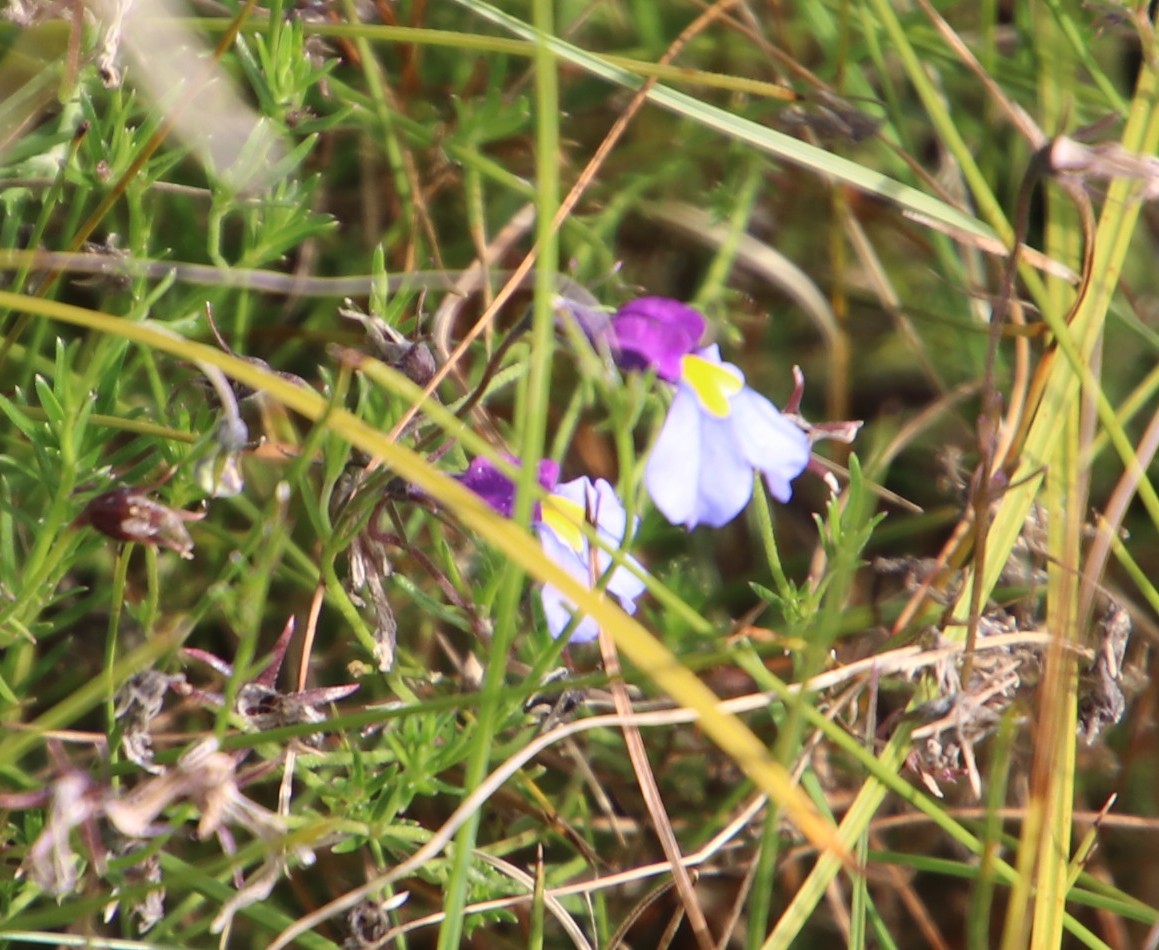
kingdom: Plantae
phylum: Tracheophyta
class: Magnoliopsida
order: Asterales
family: Campanulaceae
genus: Monopsis
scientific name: Monopsis decipiens
